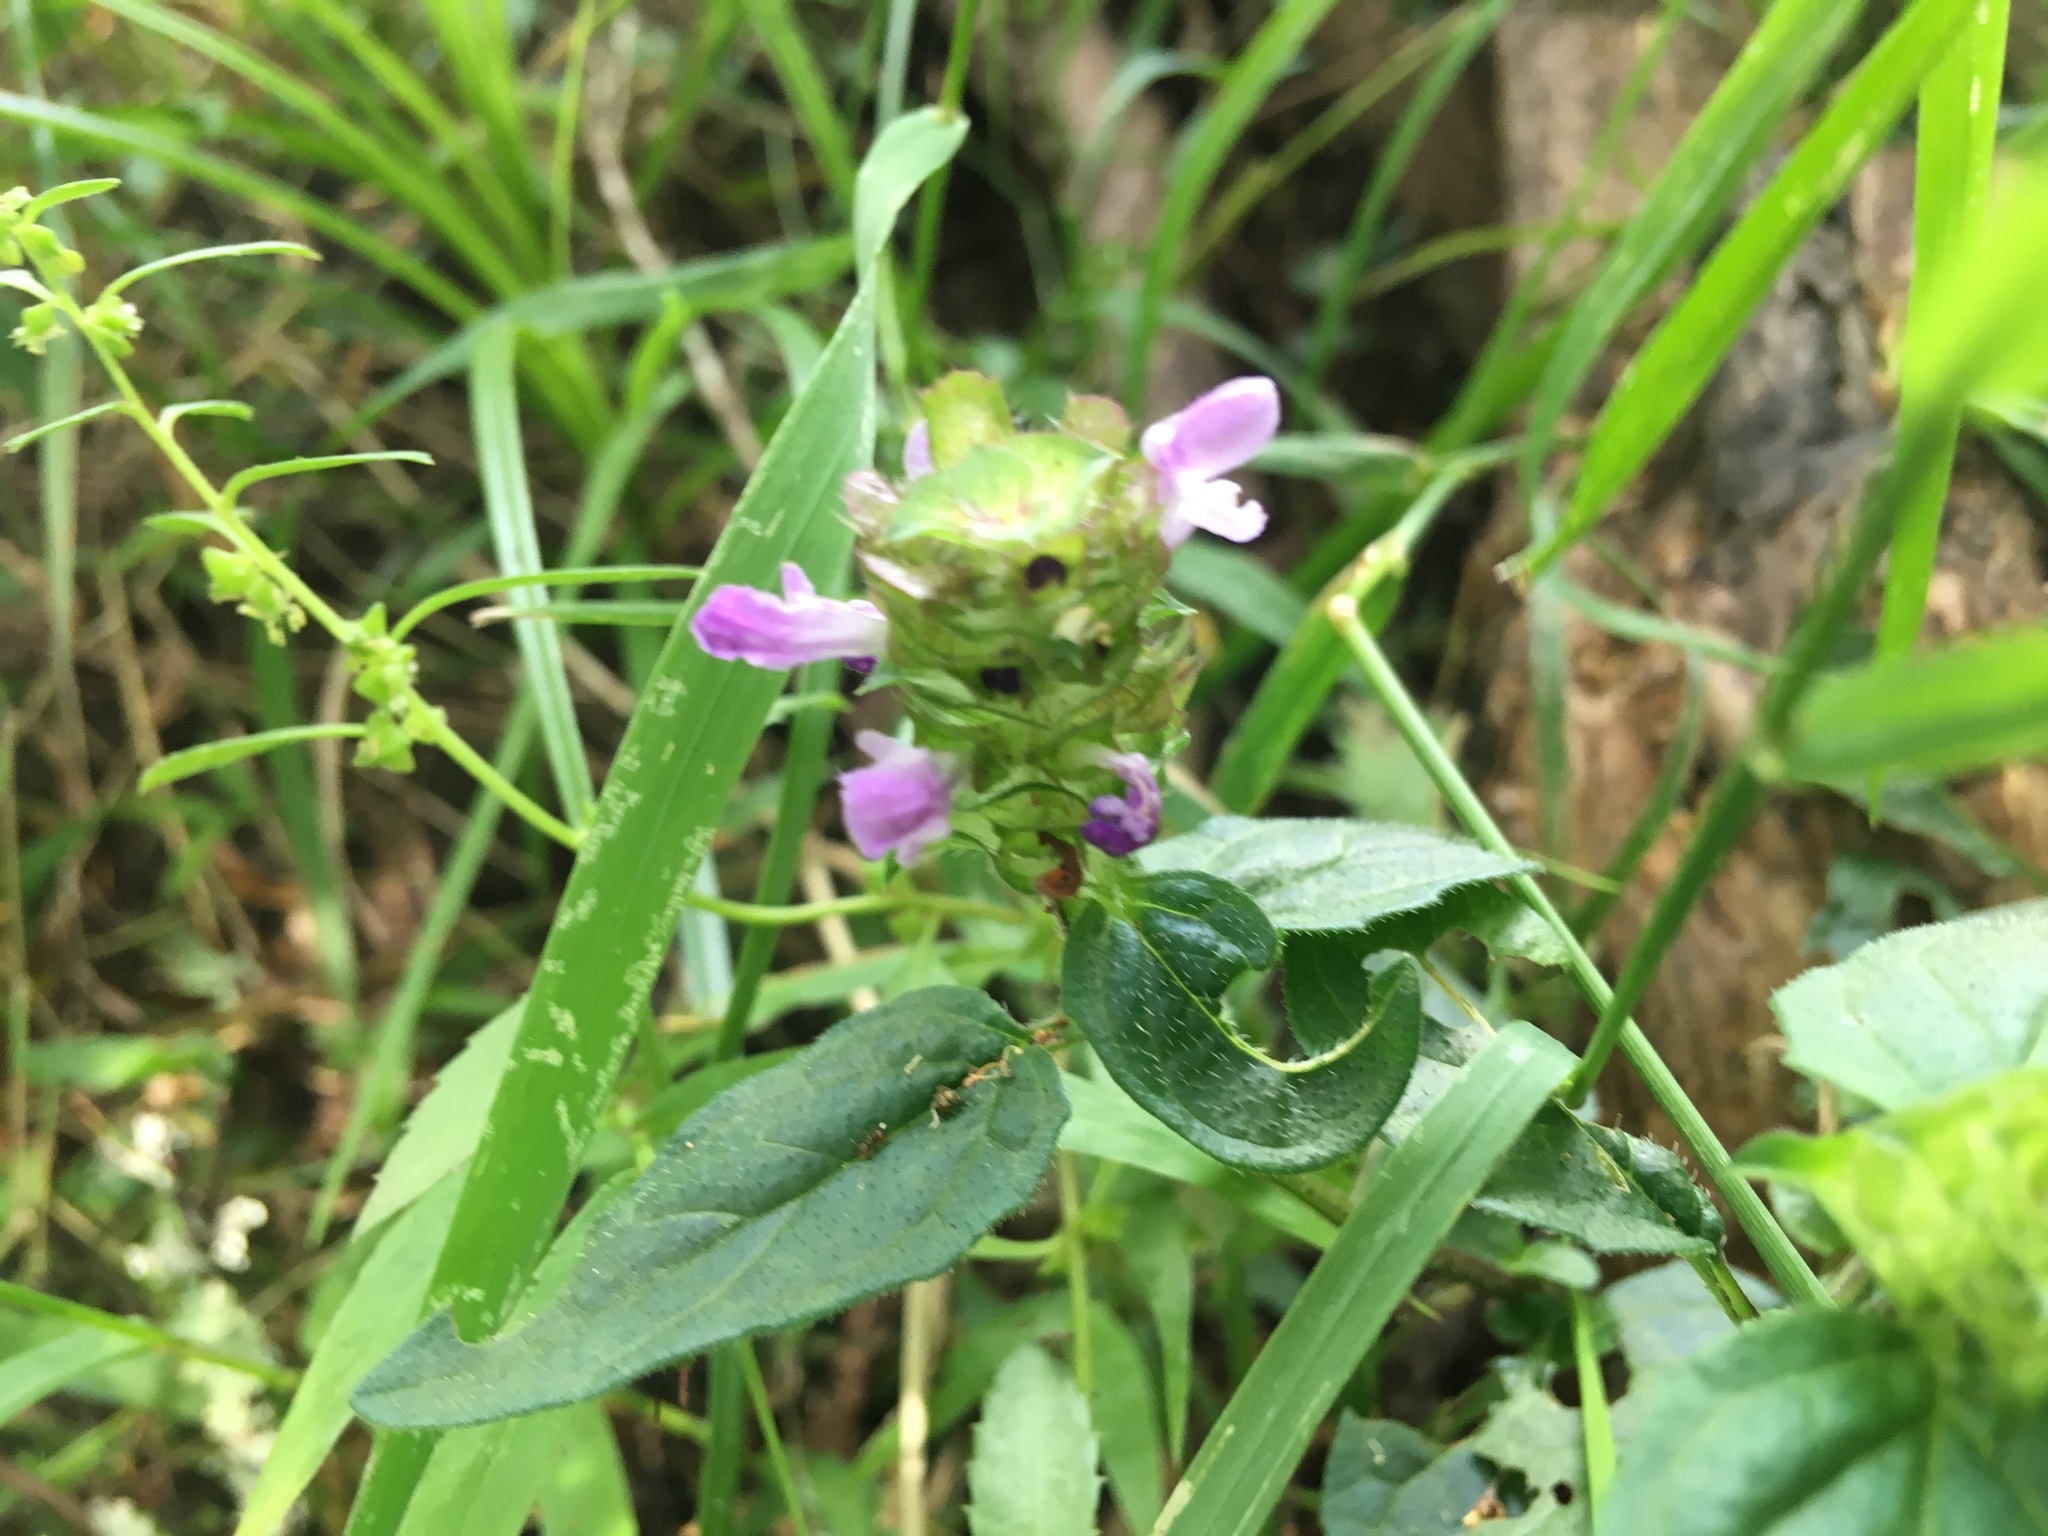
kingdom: Plantae
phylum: Tracheophyta
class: Magnoliopsida
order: Lamiales
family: Lamiaceae
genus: Prunella
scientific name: Prunella vulgaris
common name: Heal-all
